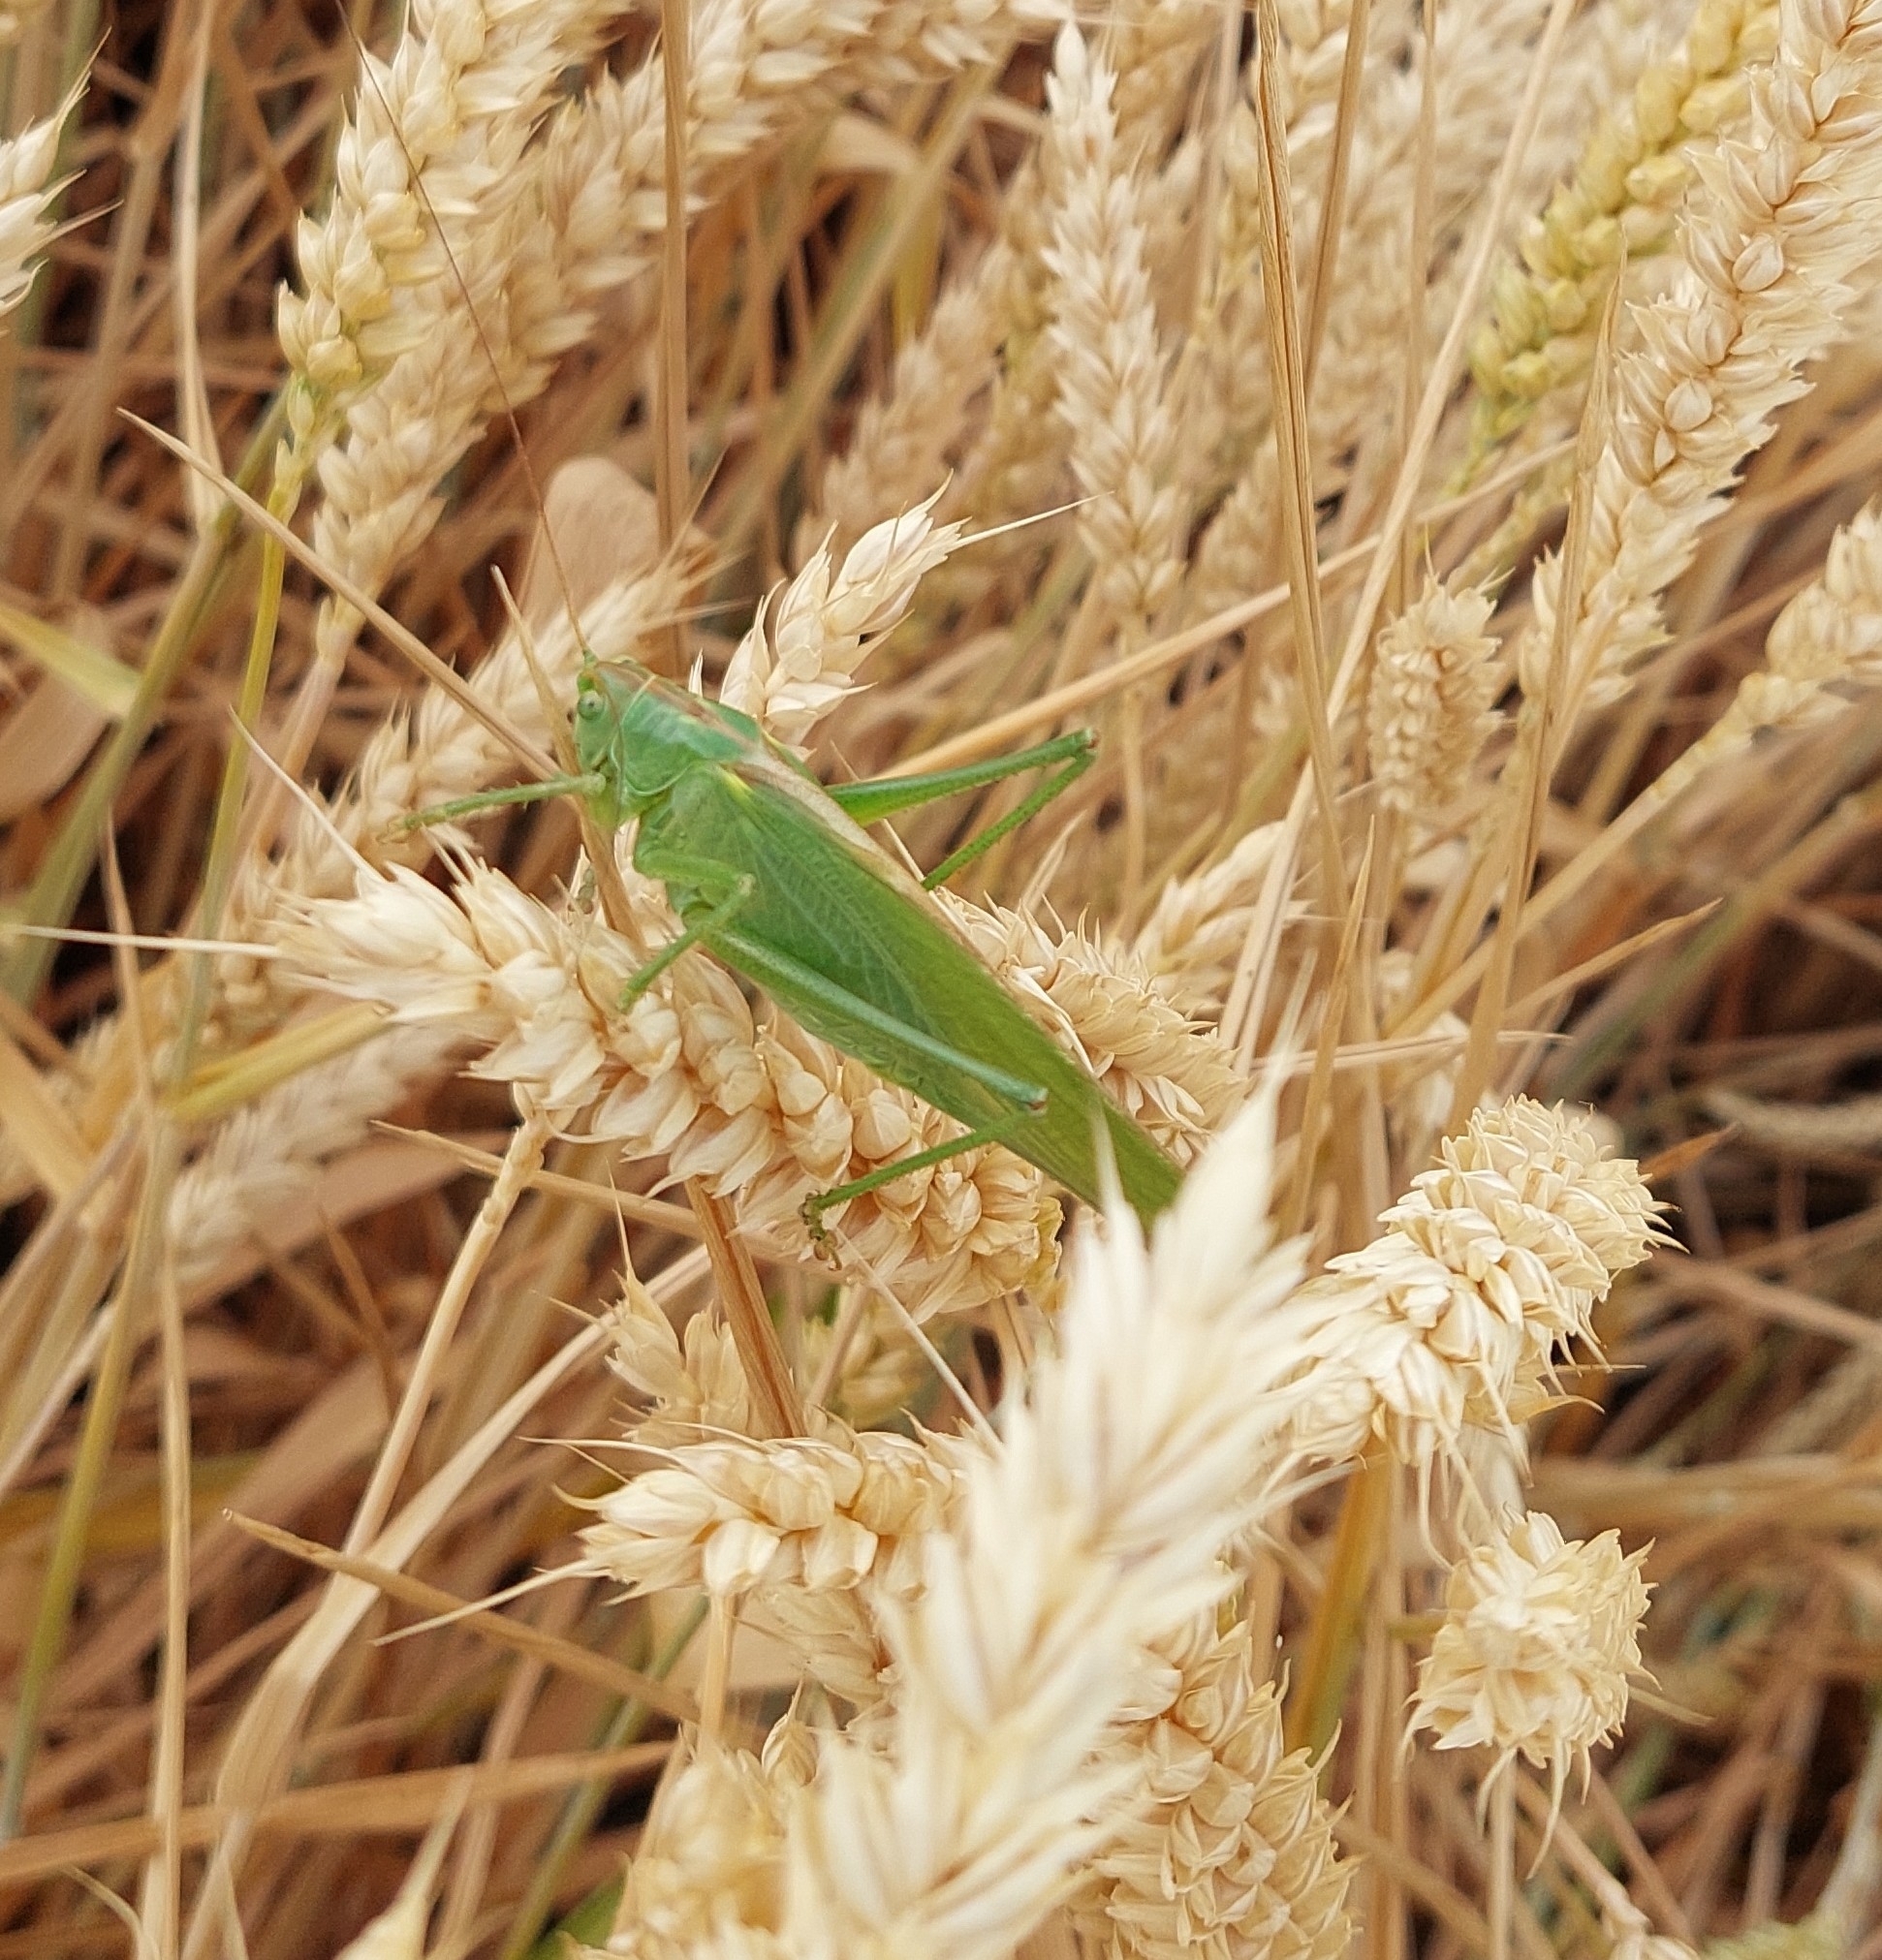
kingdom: Animalia
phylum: Arthropoda
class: Insecta
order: Orthoptera
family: Tettigoniidae
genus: Tettigonia
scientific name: Tettigonia viridissima
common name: Great green bush-cricket
